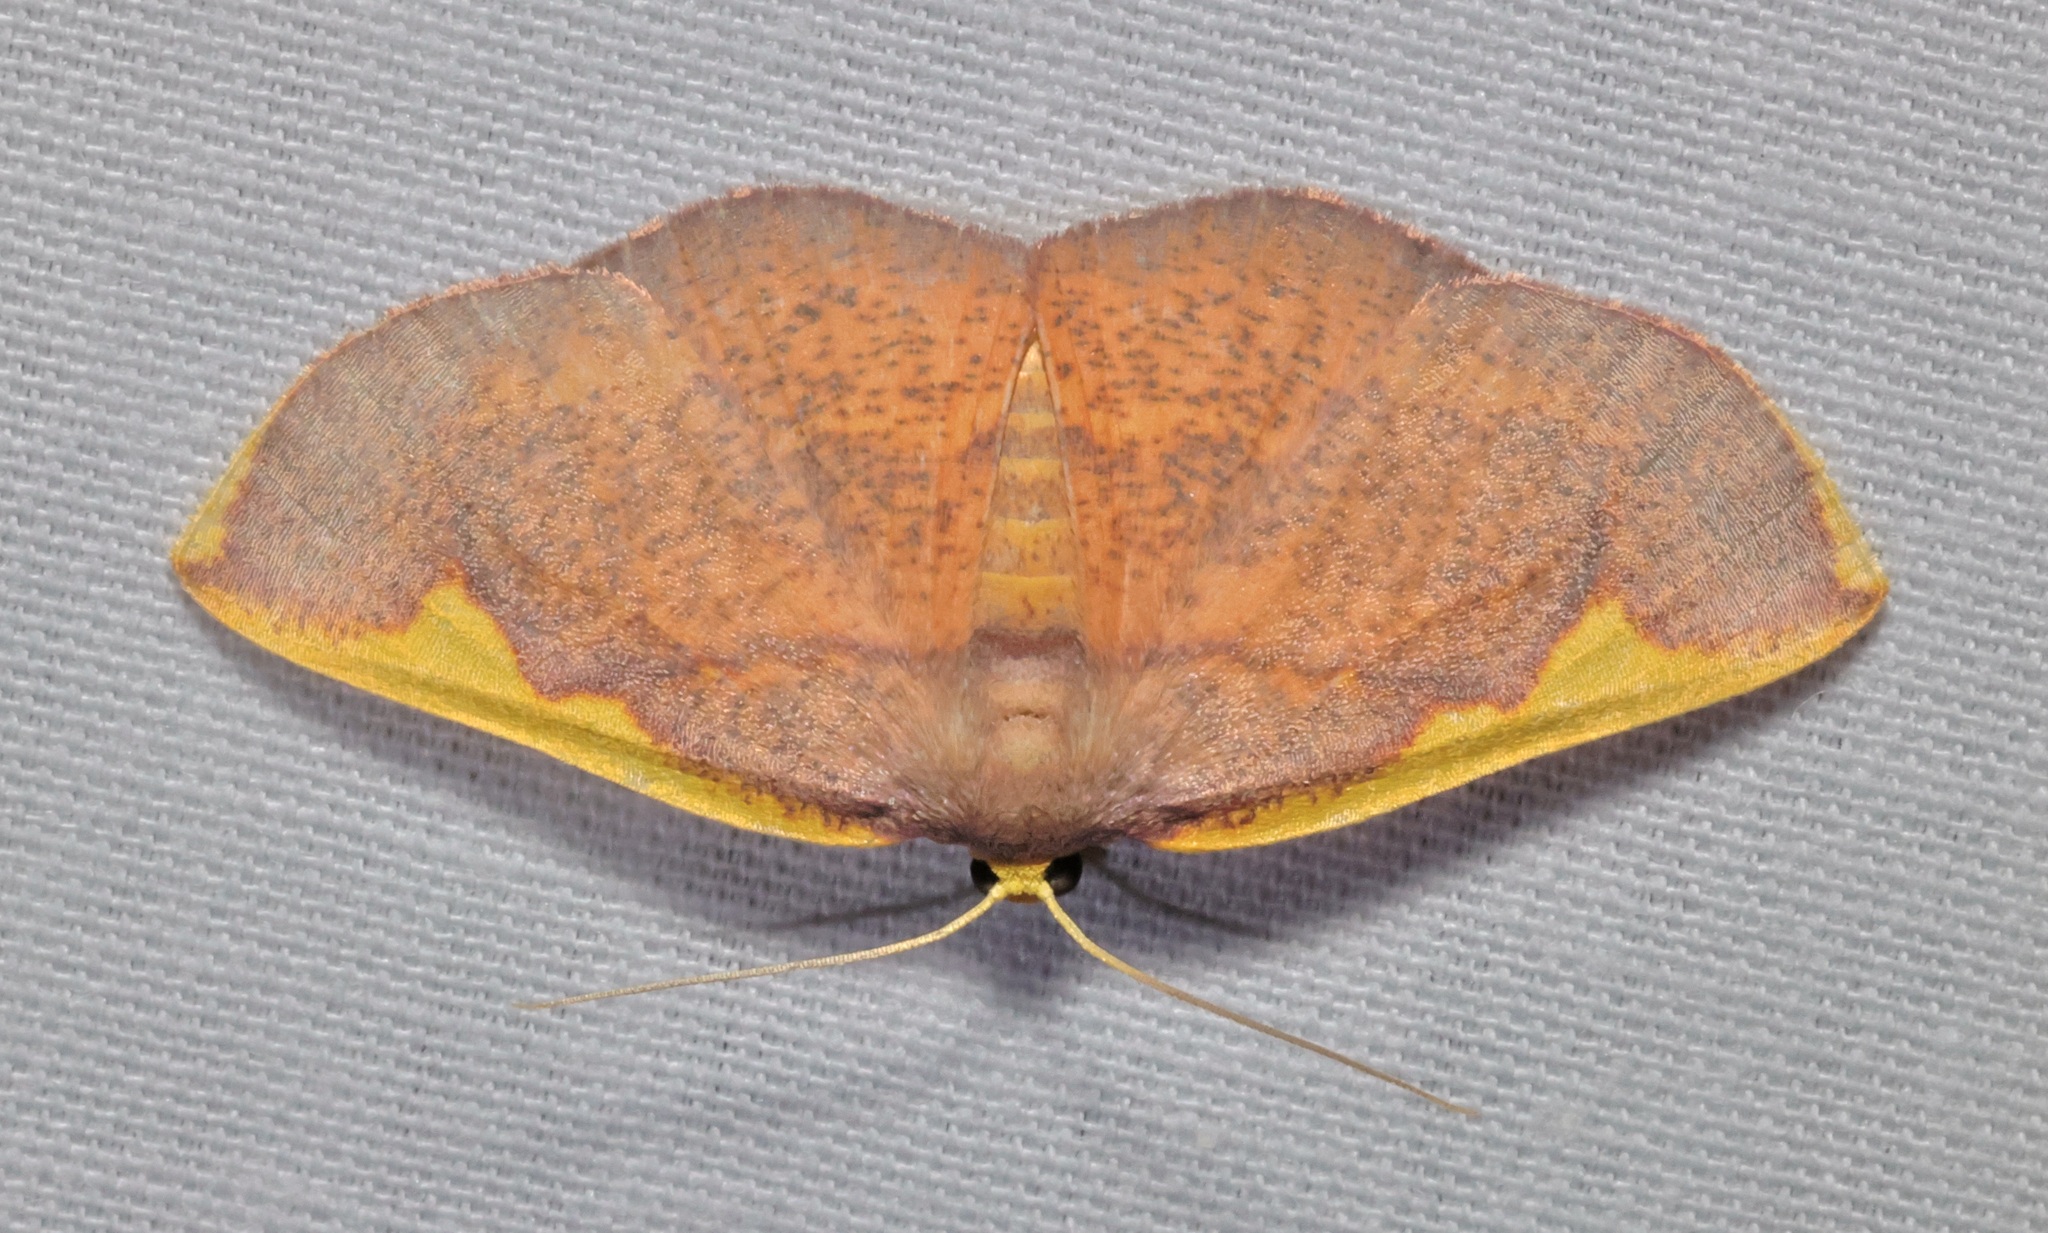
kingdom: Animalia
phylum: Arthropoda
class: Insecta
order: Lepidoptera
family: Geometridae
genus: Nothomiza
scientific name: Nothomiza flavicosta
